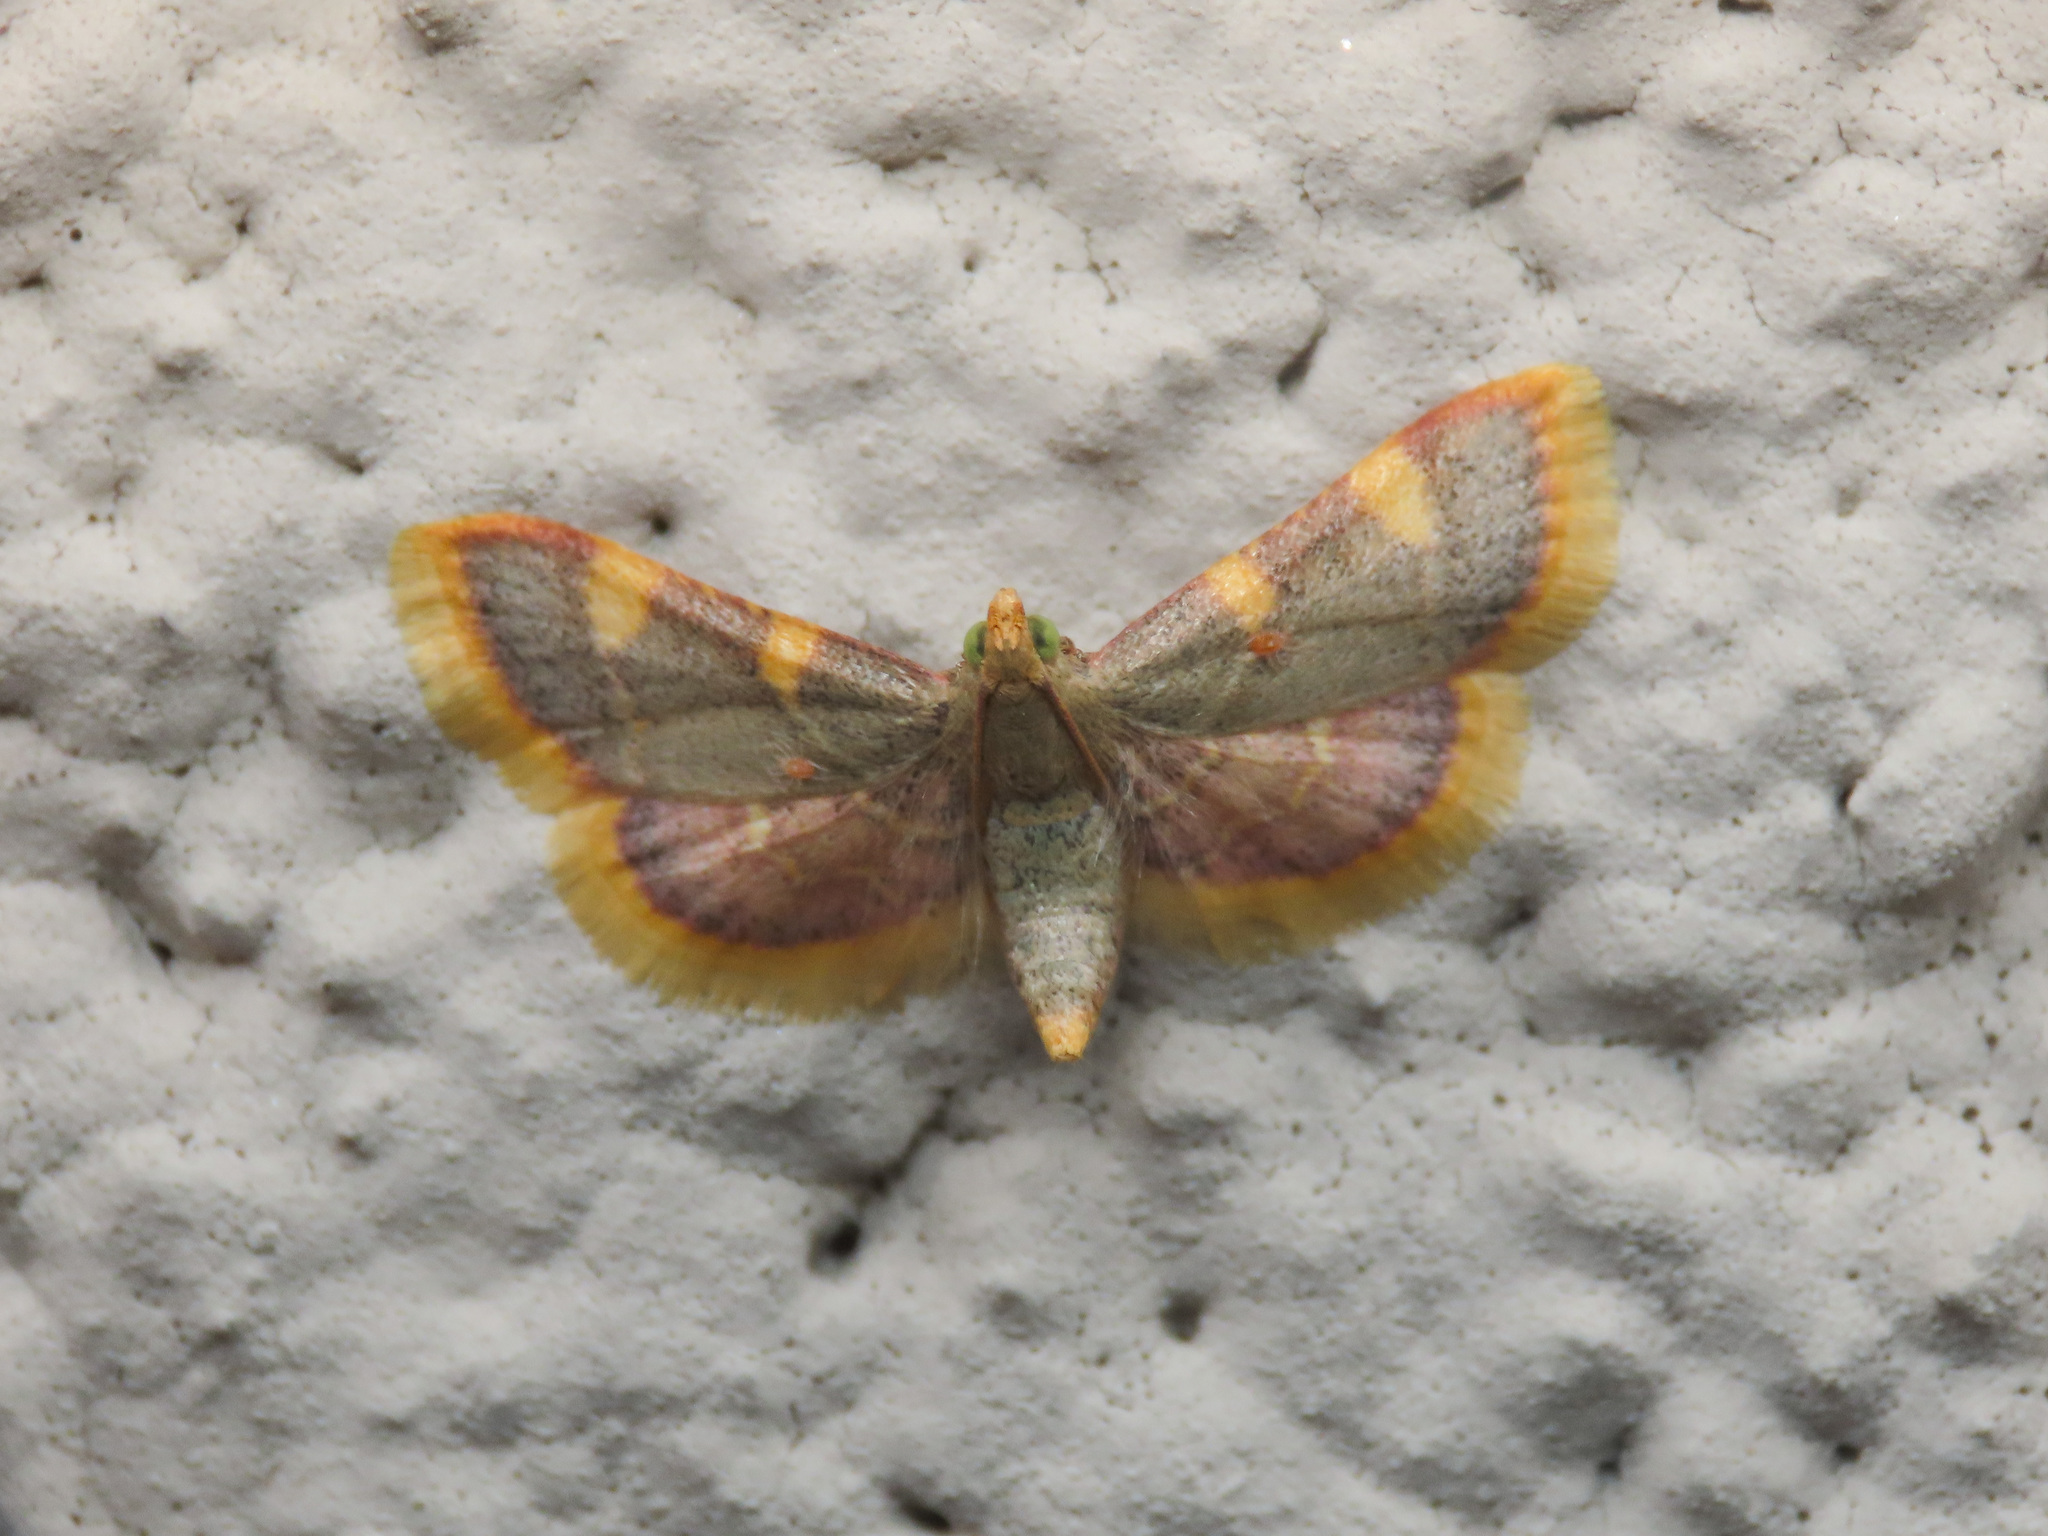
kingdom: Animalia
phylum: Arthropoda
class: Insecta
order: Lepidoptera
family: Pyralidae
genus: Hypsopygia
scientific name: Hypsopygia costalis
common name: Gold triangle
